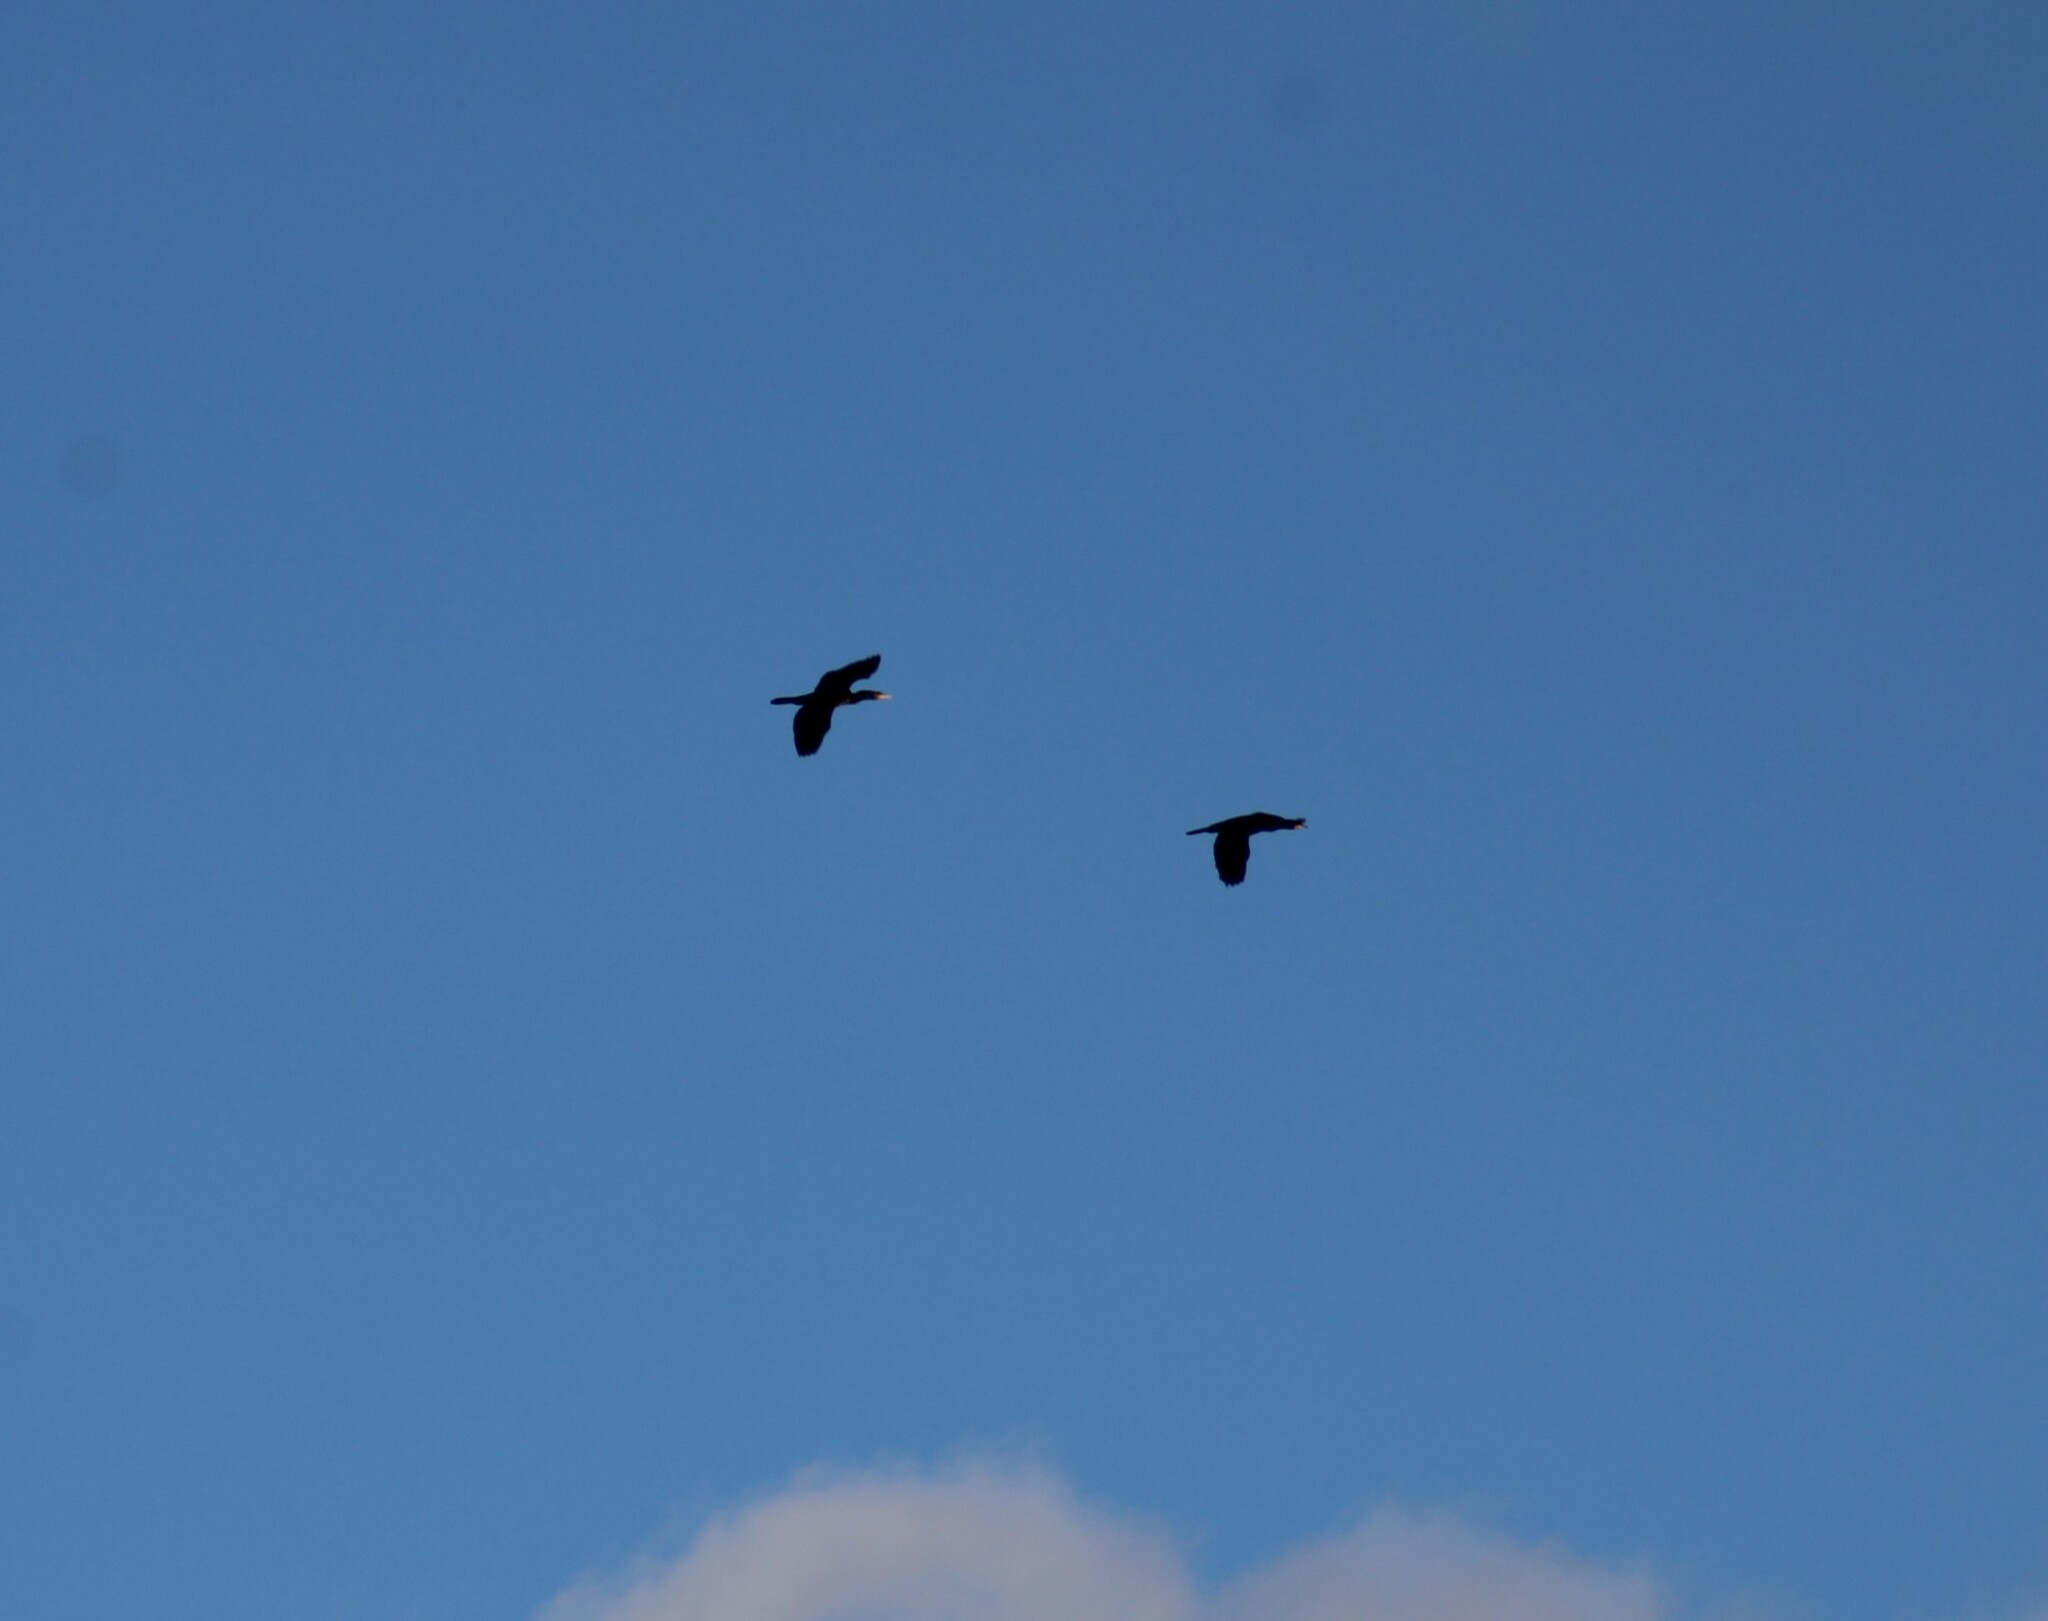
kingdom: Animalia
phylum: Chordata
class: Aves
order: Suliformes
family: Phalacrocoracidae
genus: Phalacrocorax
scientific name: Phalacrocorax carbo
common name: Great cormorant
